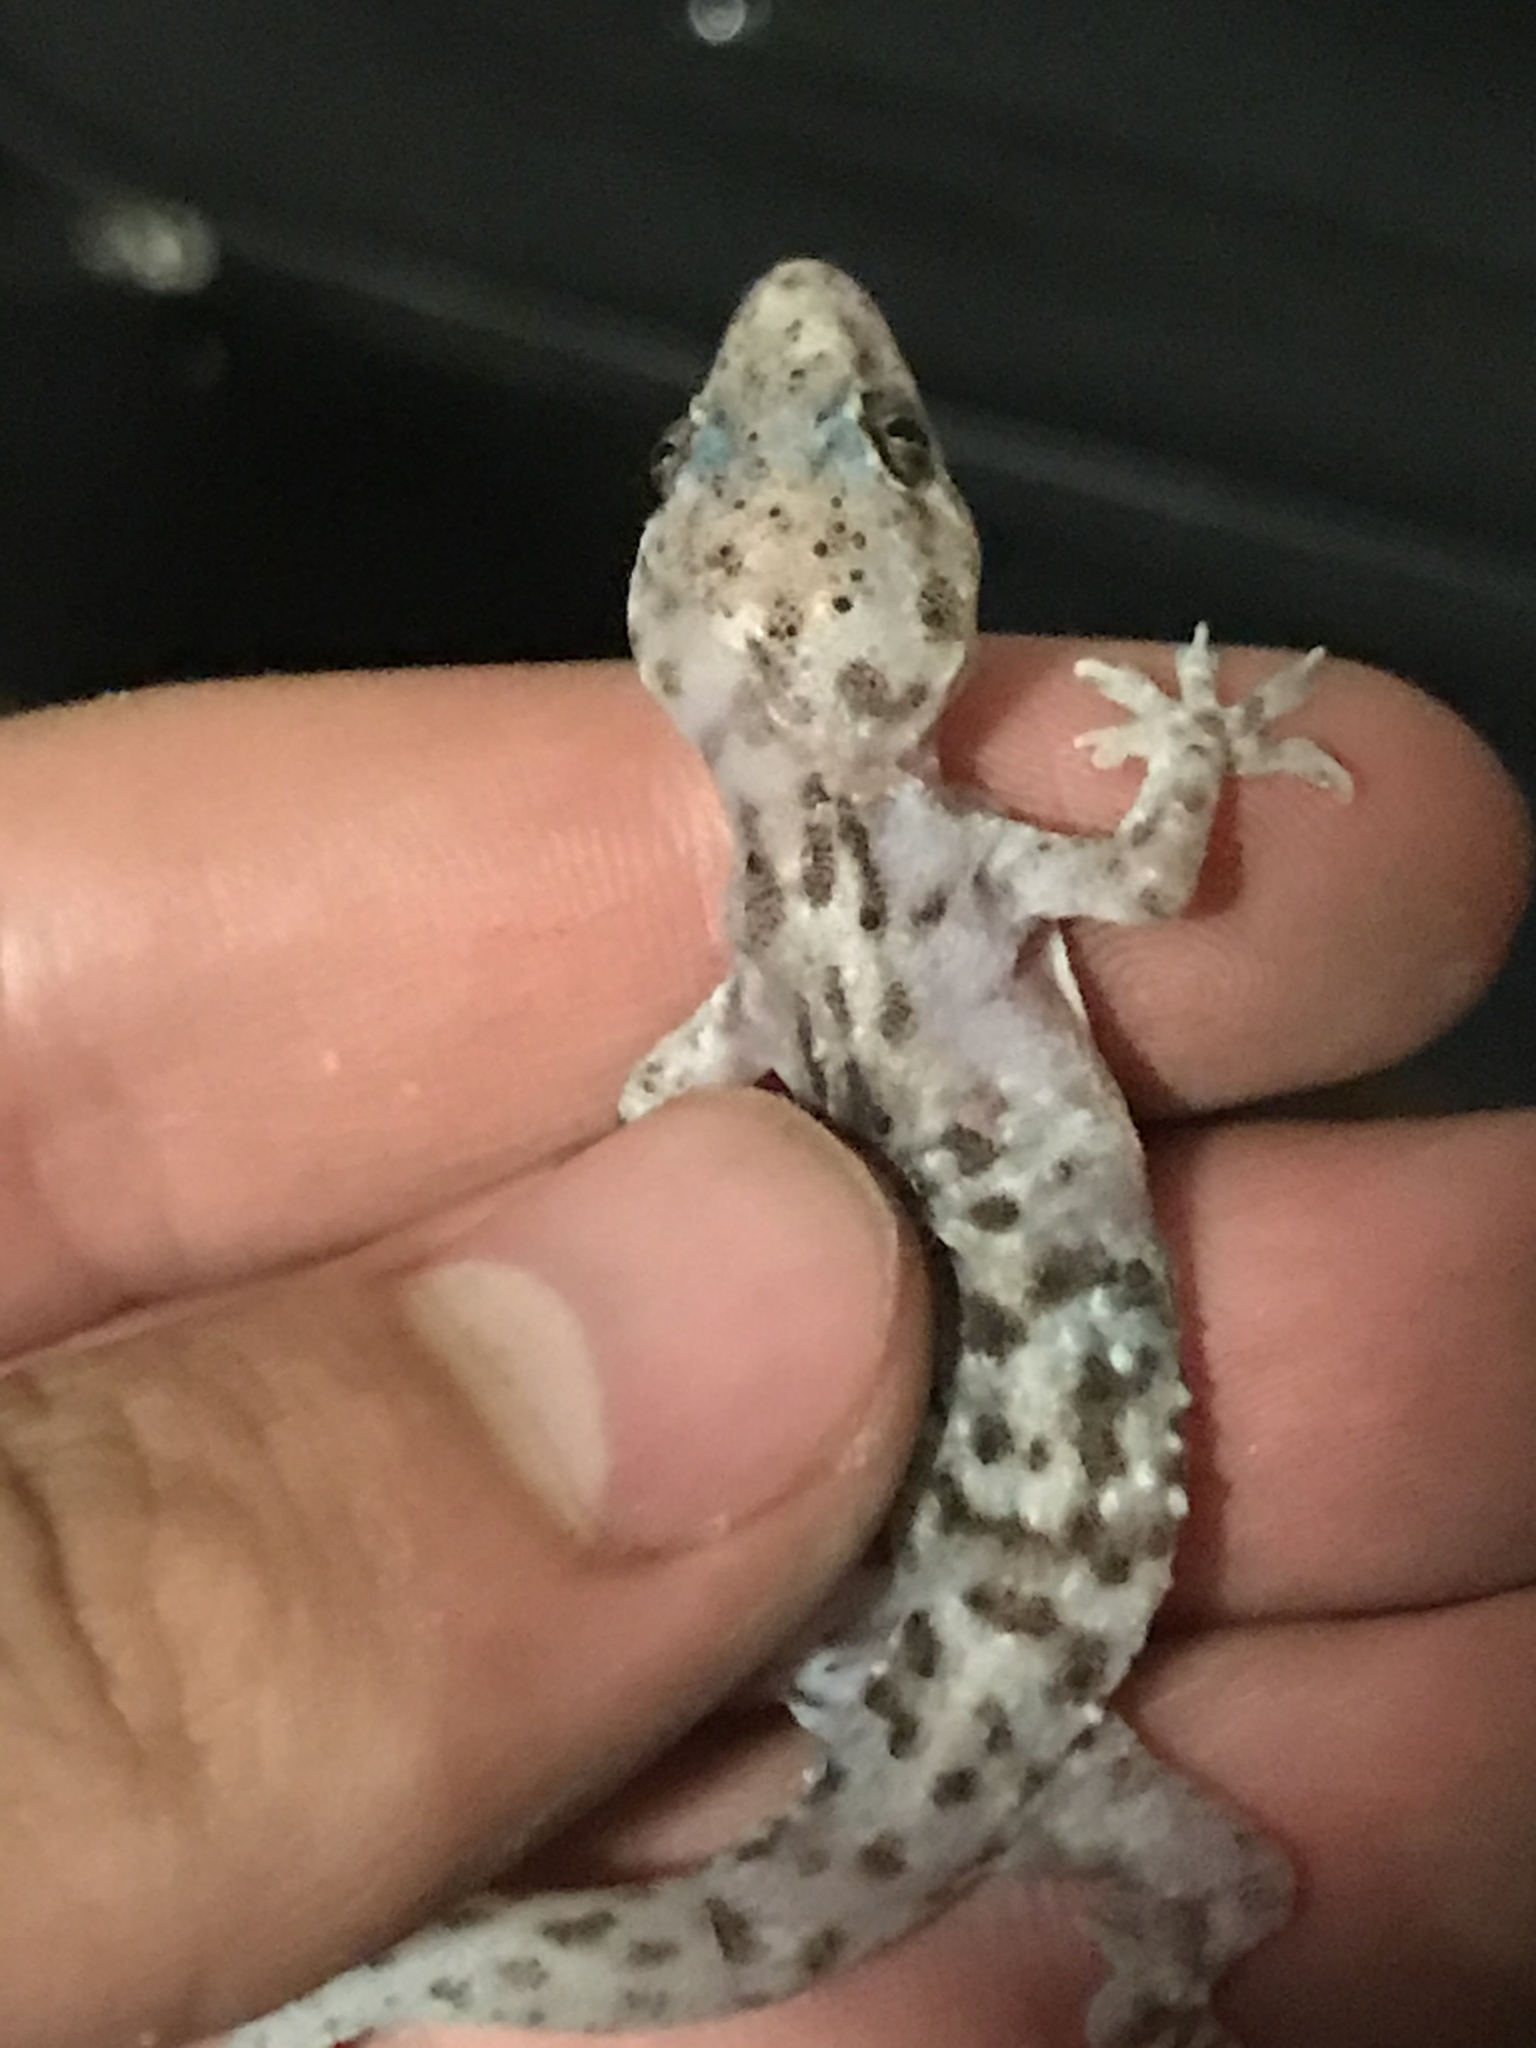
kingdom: Animalia
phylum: Chordata
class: Squamata
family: Gekkonidae
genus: Hemidactylus
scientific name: Hemidactylus turcicus
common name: Turkish gecko
